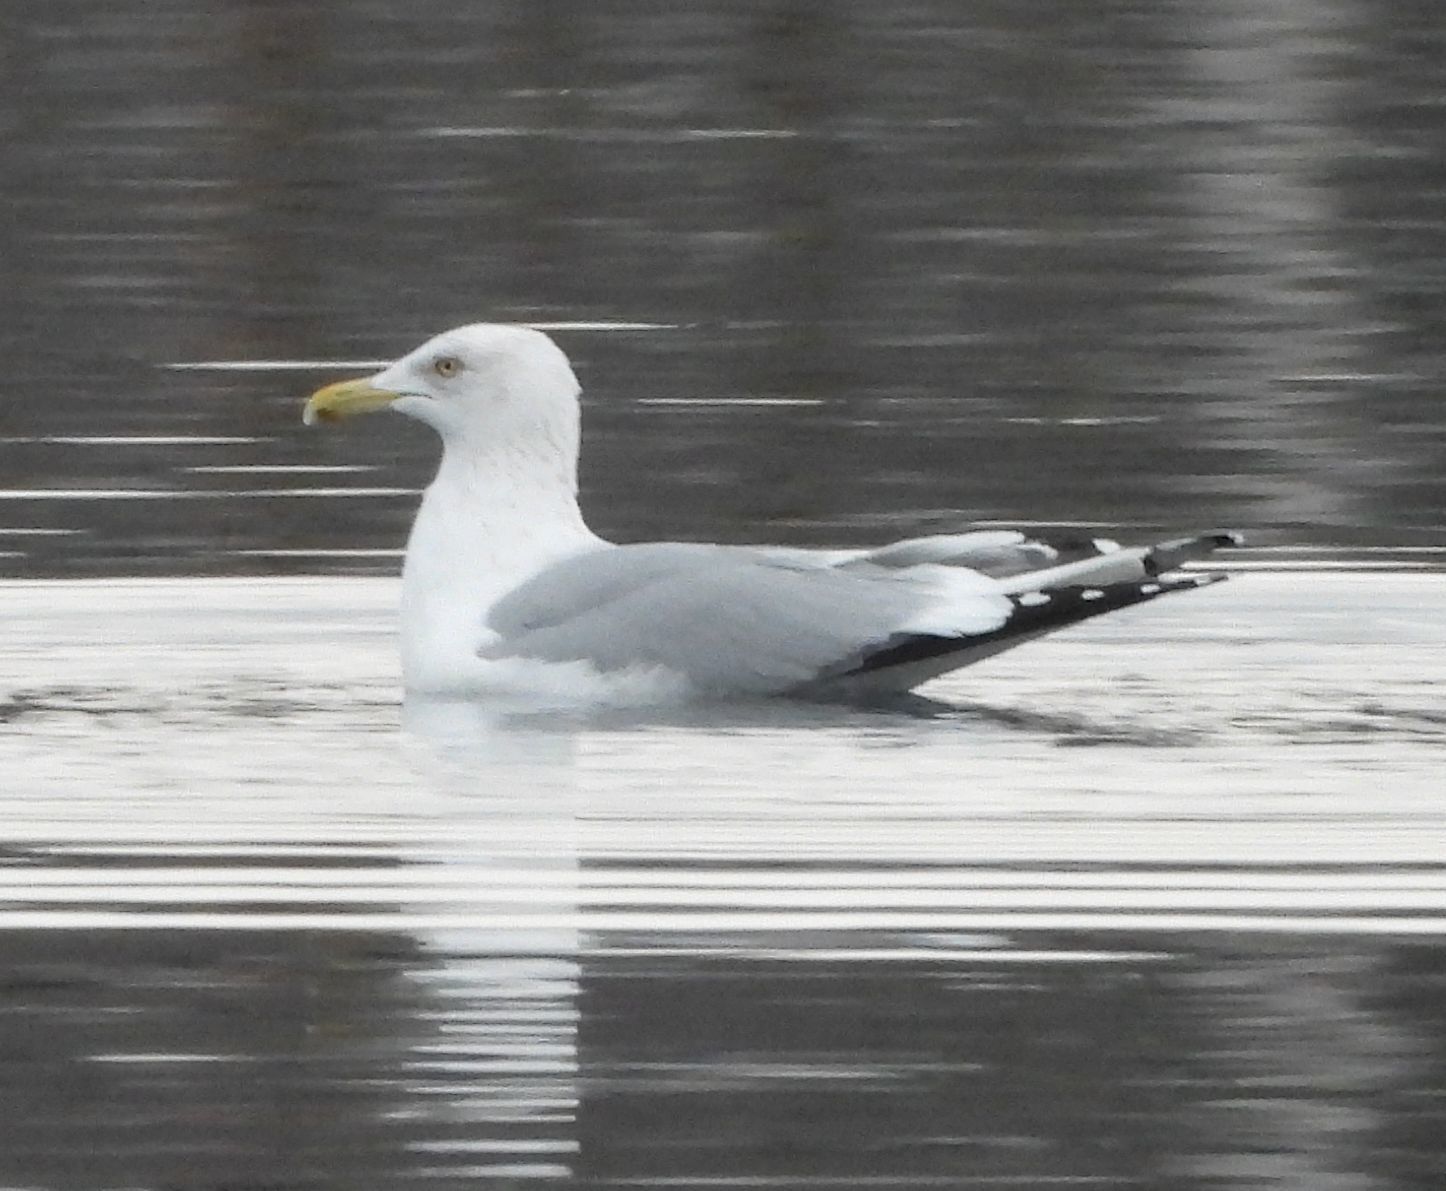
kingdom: Animalia
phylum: Chordata
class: Aves
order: Charadriiformes
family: Laridae
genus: Larus
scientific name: Larus argentatus
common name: Herring gull
